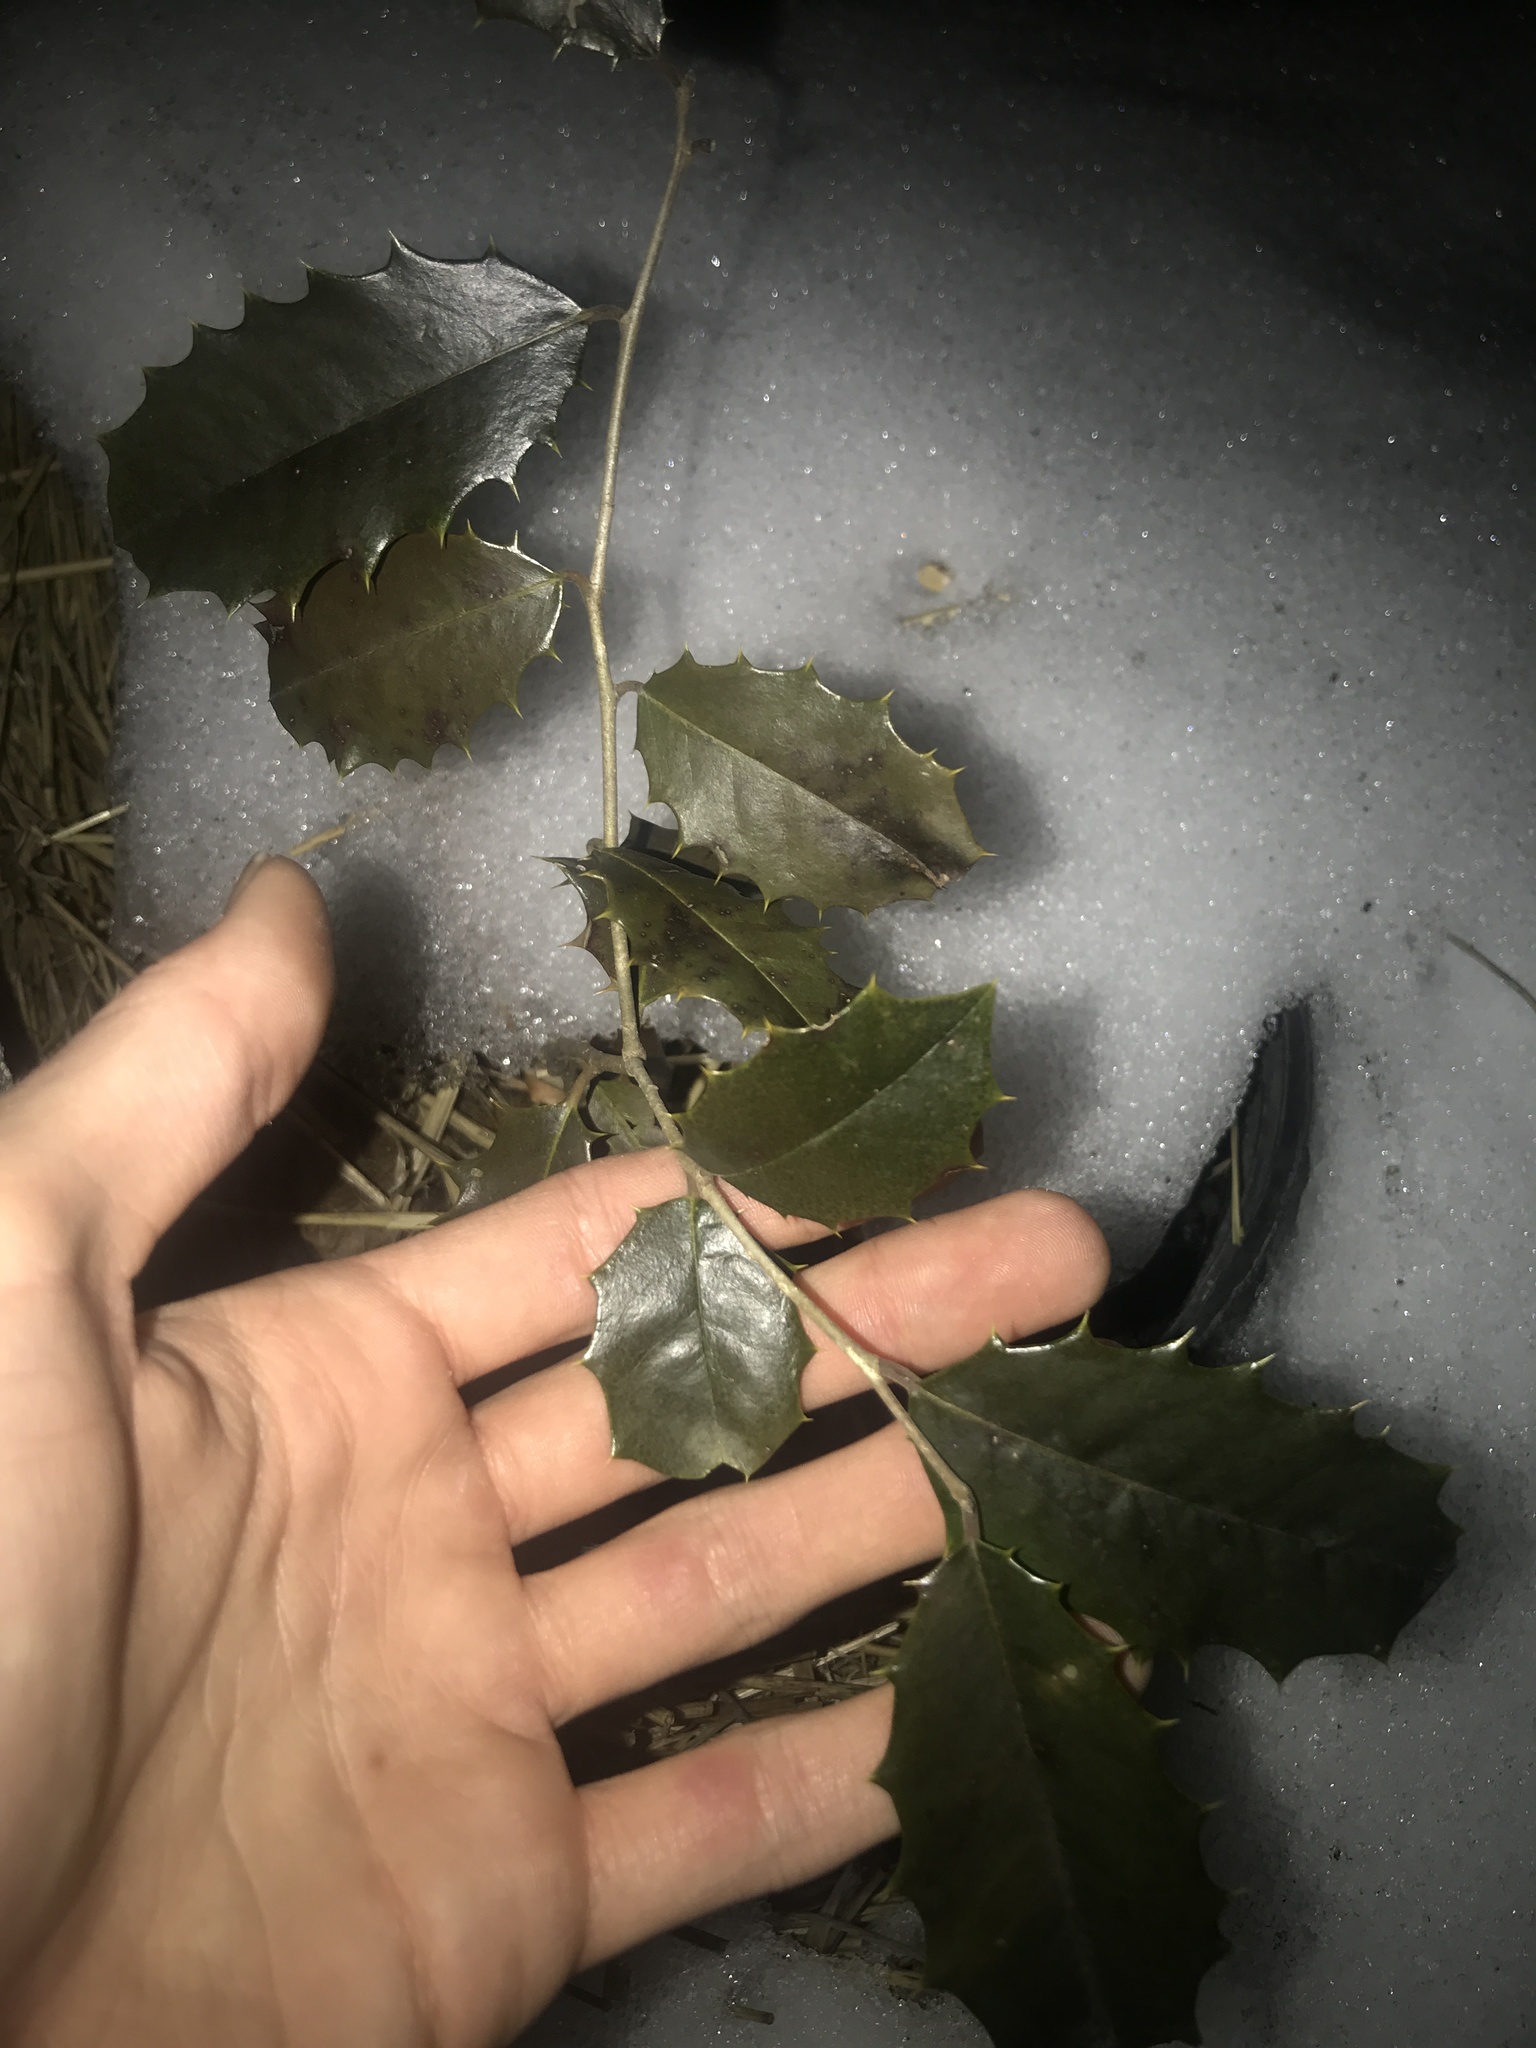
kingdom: Plantae
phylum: Tracheophyta
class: Magnoliopsida
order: Aquifoliales
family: Aquifoliaceae
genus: Ilex
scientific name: Ilex opaca
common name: American holly
